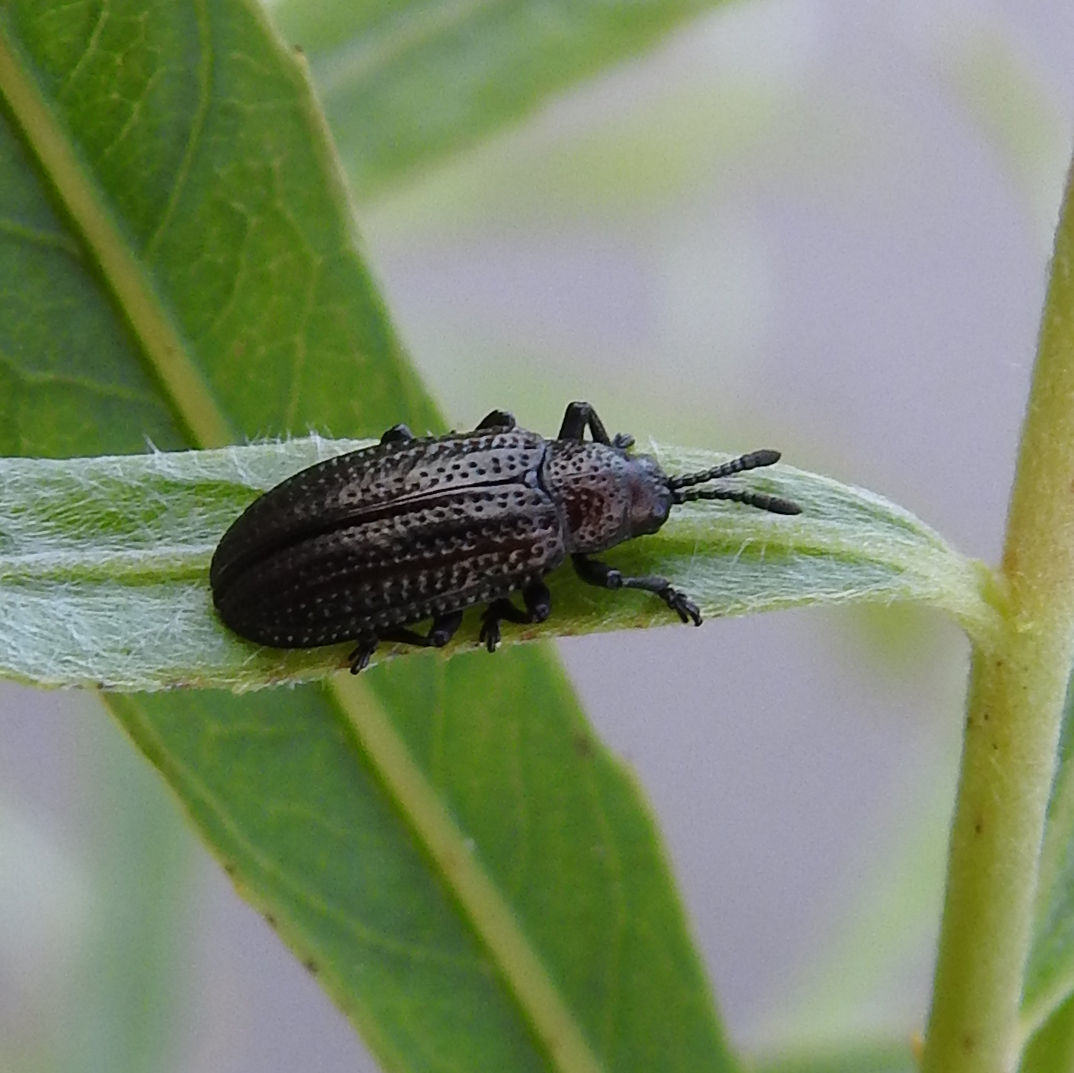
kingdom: Animalia
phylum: Arthropoda
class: Insecta
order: Coleoptera
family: Chrysomelidae
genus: Microrhopala
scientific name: Microrhopala vittata
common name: Goldenrod leaf miner beetle
